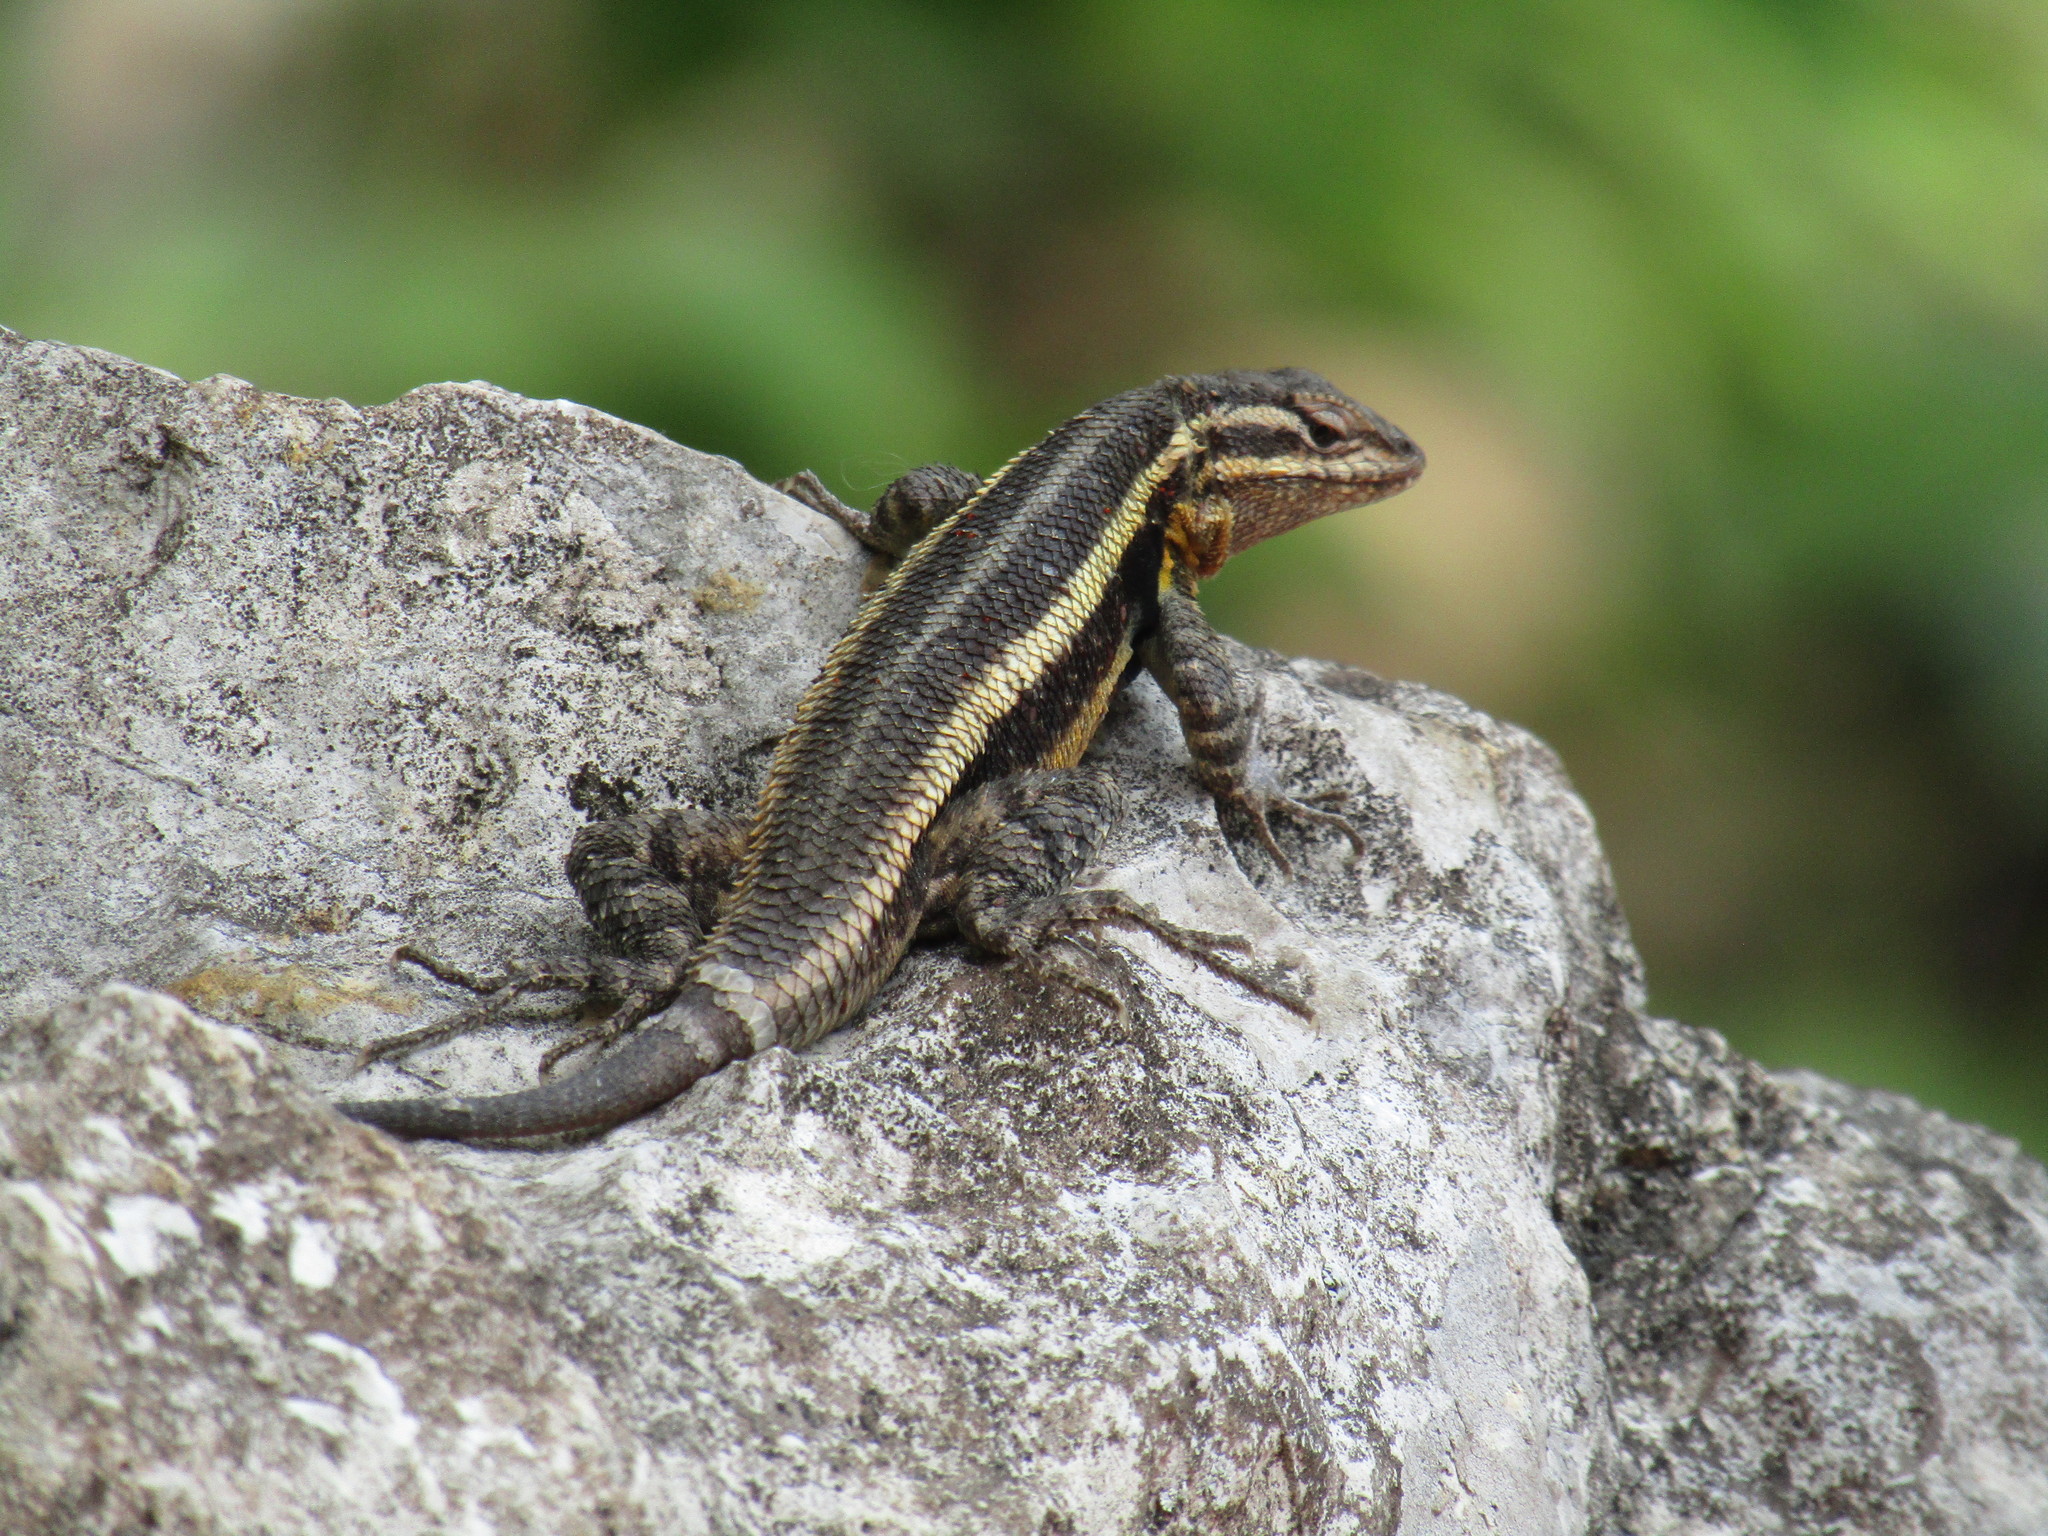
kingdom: Animalia
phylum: Chordata
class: Squamata
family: Phrynosomatidae
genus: Sceloporus
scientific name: Sceloporus variabilis
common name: Rosebelly lizard
